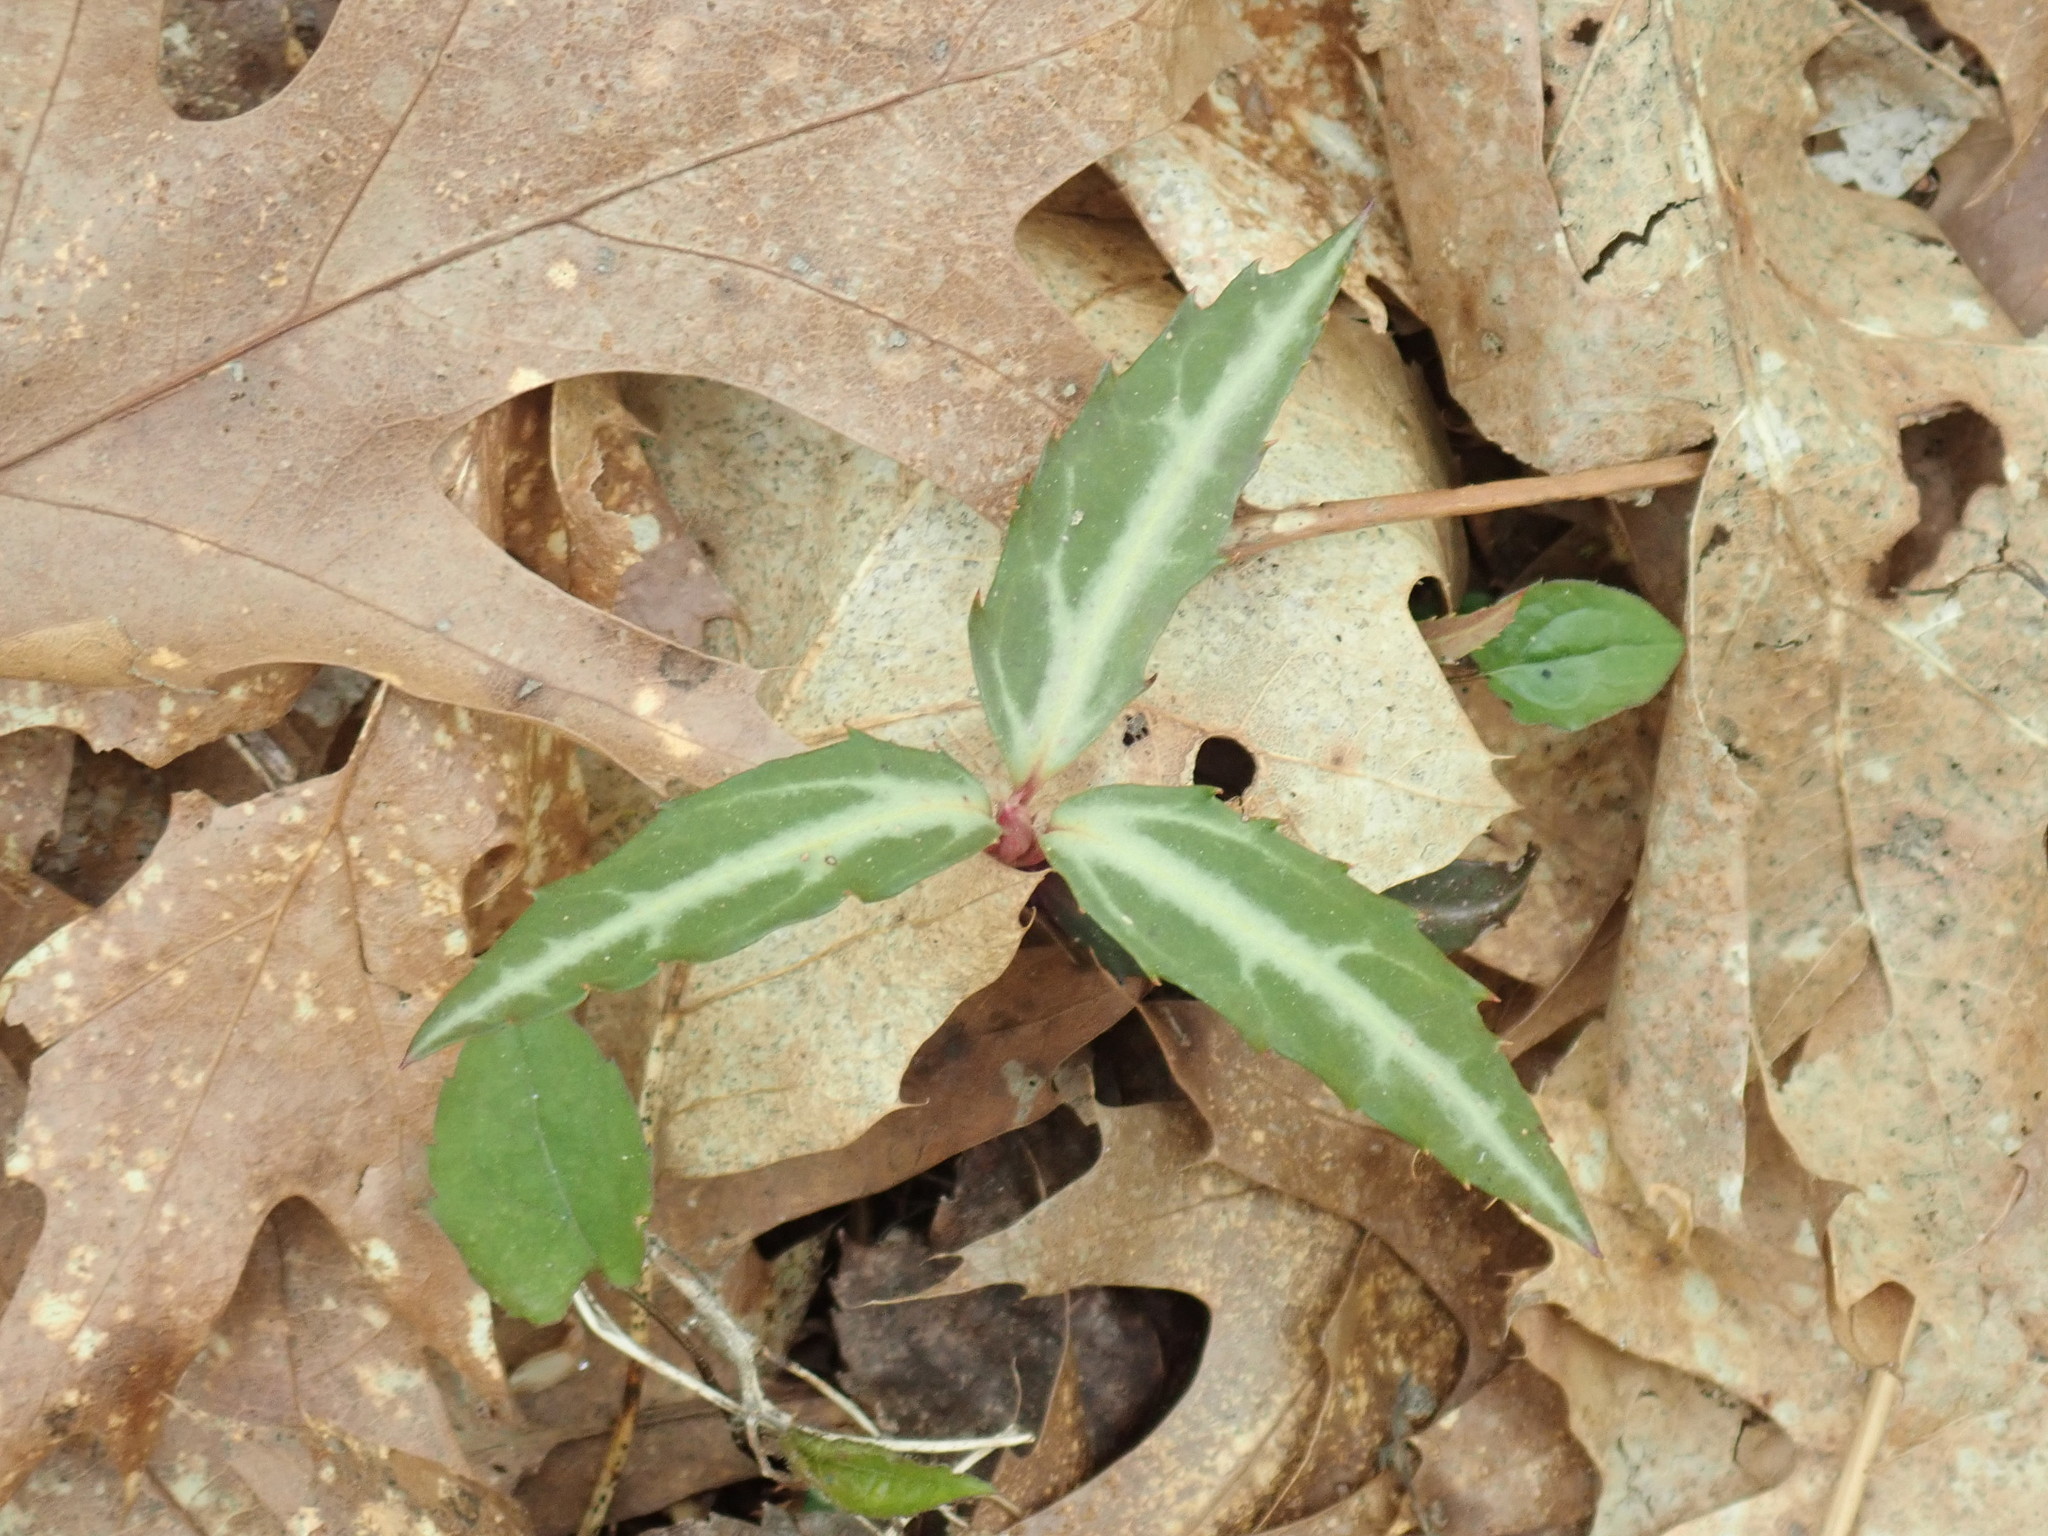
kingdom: Plantae
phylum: Tracheophyta
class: Magnoliopsida
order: Ericales
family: Ericaceae
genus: Chimaphila
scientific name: Chimaphila maculata
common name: Spotted pipsissewa
